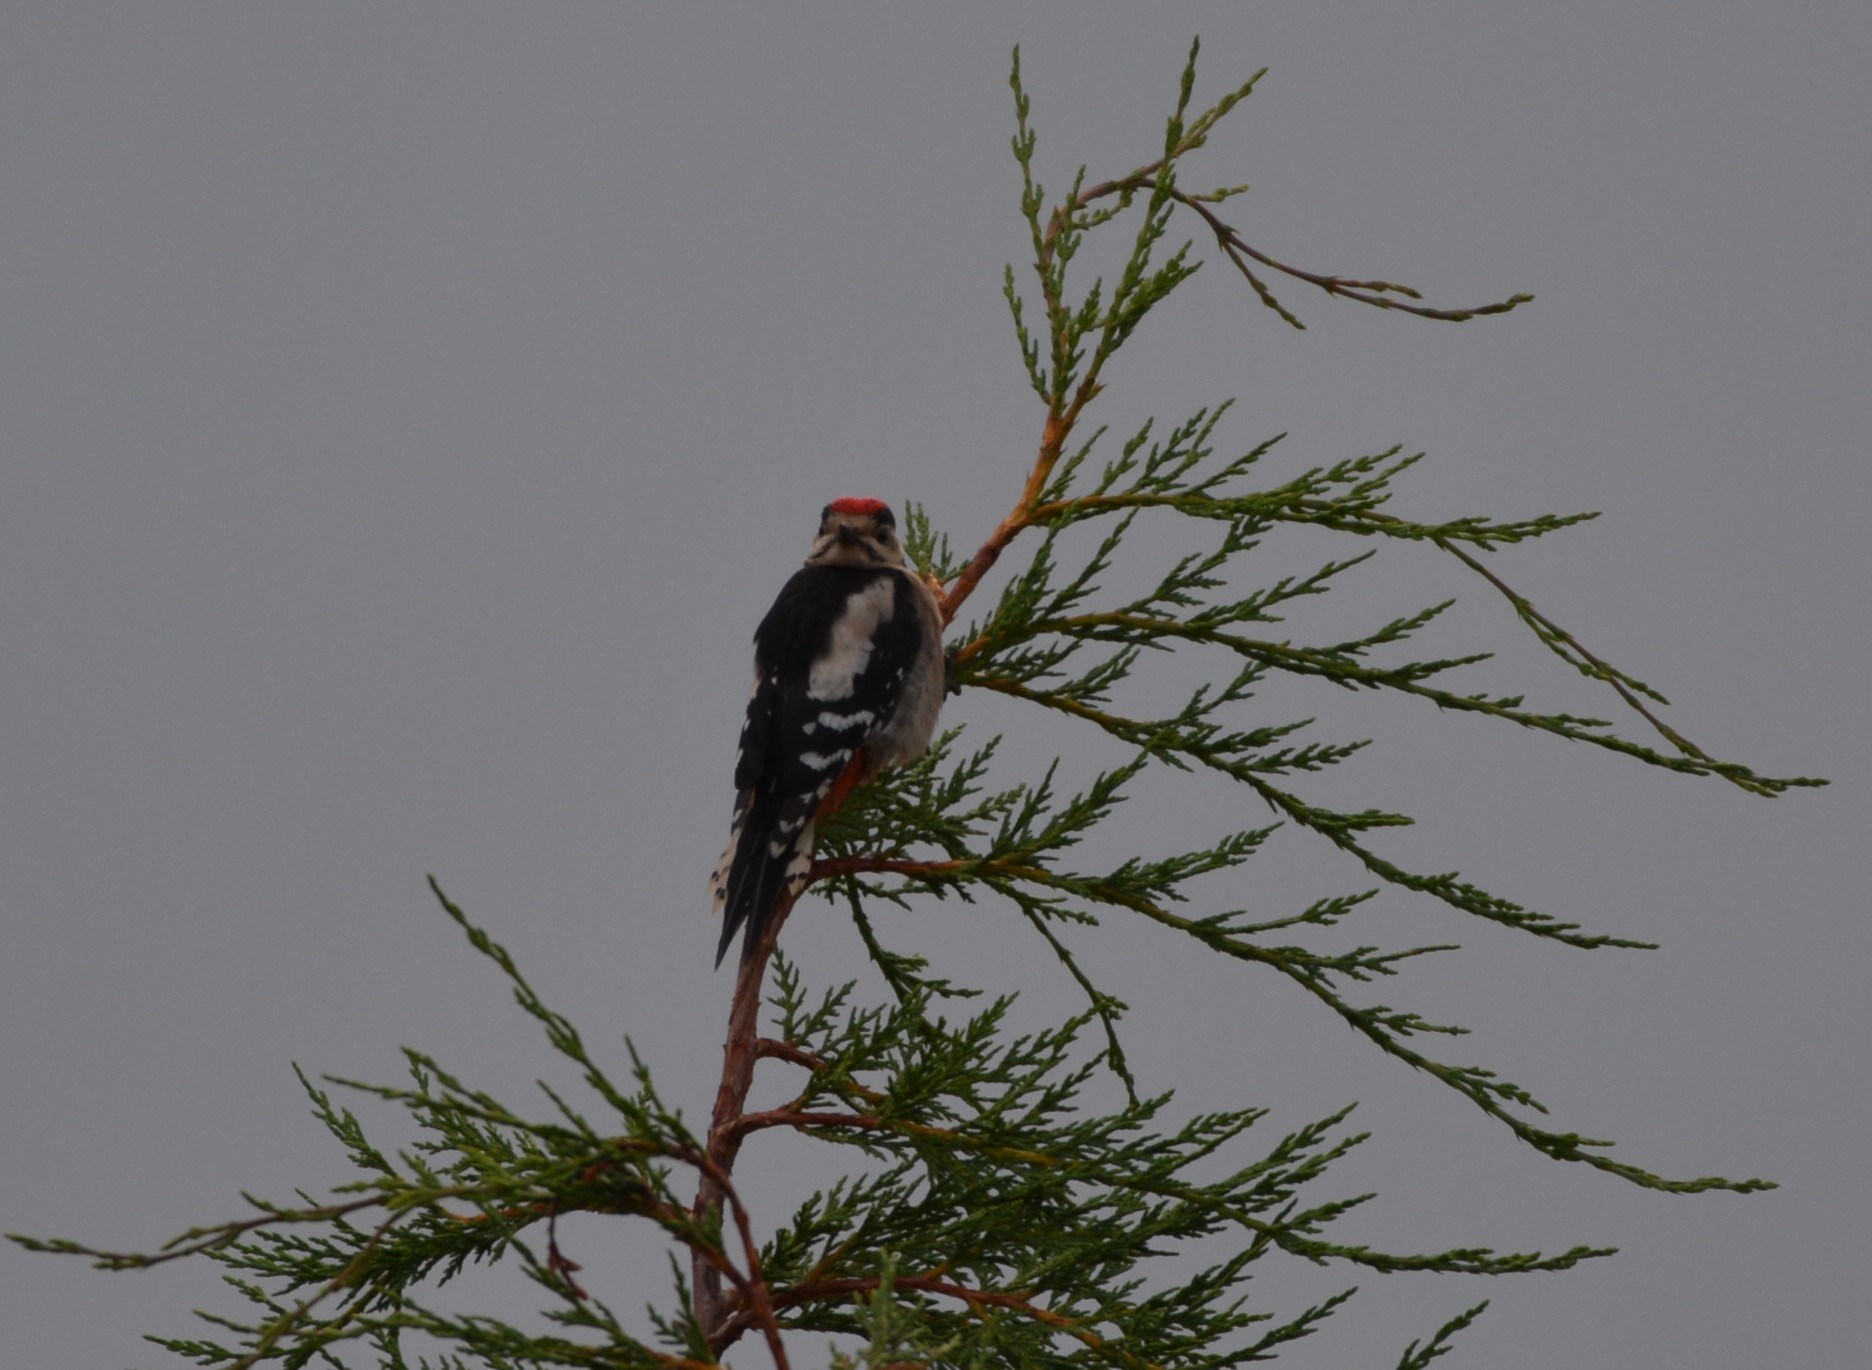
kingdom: Animalia
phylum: Chordata
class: Aves
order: Piciformes
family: Picidae
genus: Dendrocopos
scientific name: Dendrocopos major
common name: Great spotted woodpecker
